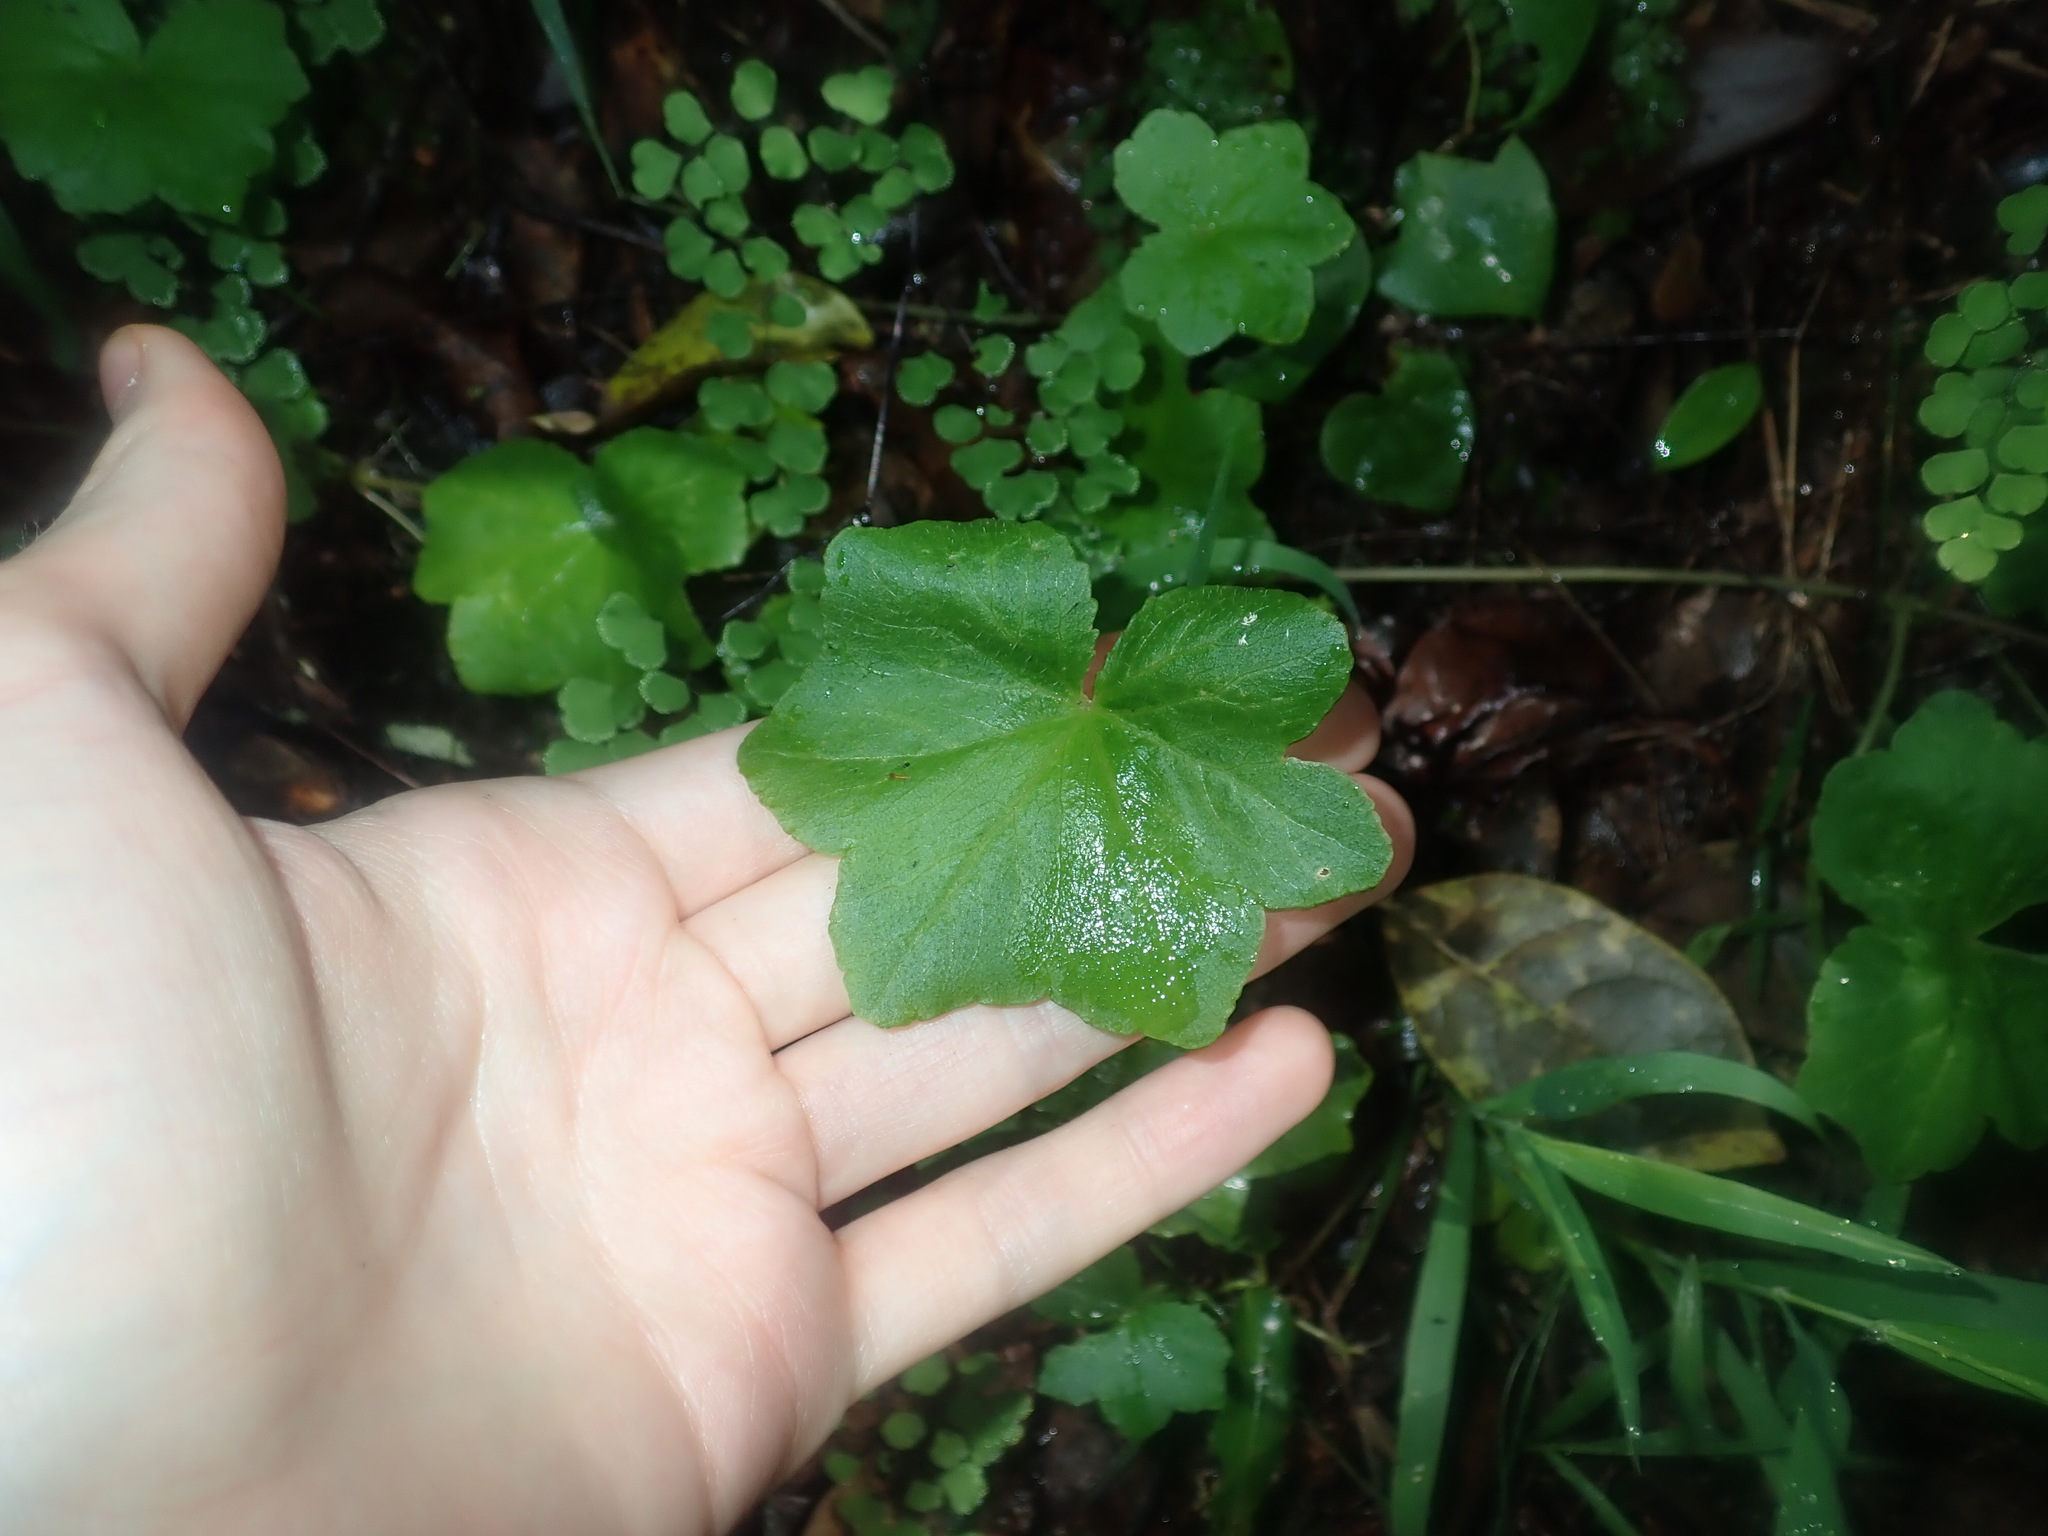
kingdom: Plantae
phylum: Tracheophyta
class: Magnoliopsida
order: Apiales
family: Araliaceae
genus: Hydrocotyle
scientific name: Hydrocotyle hirta
